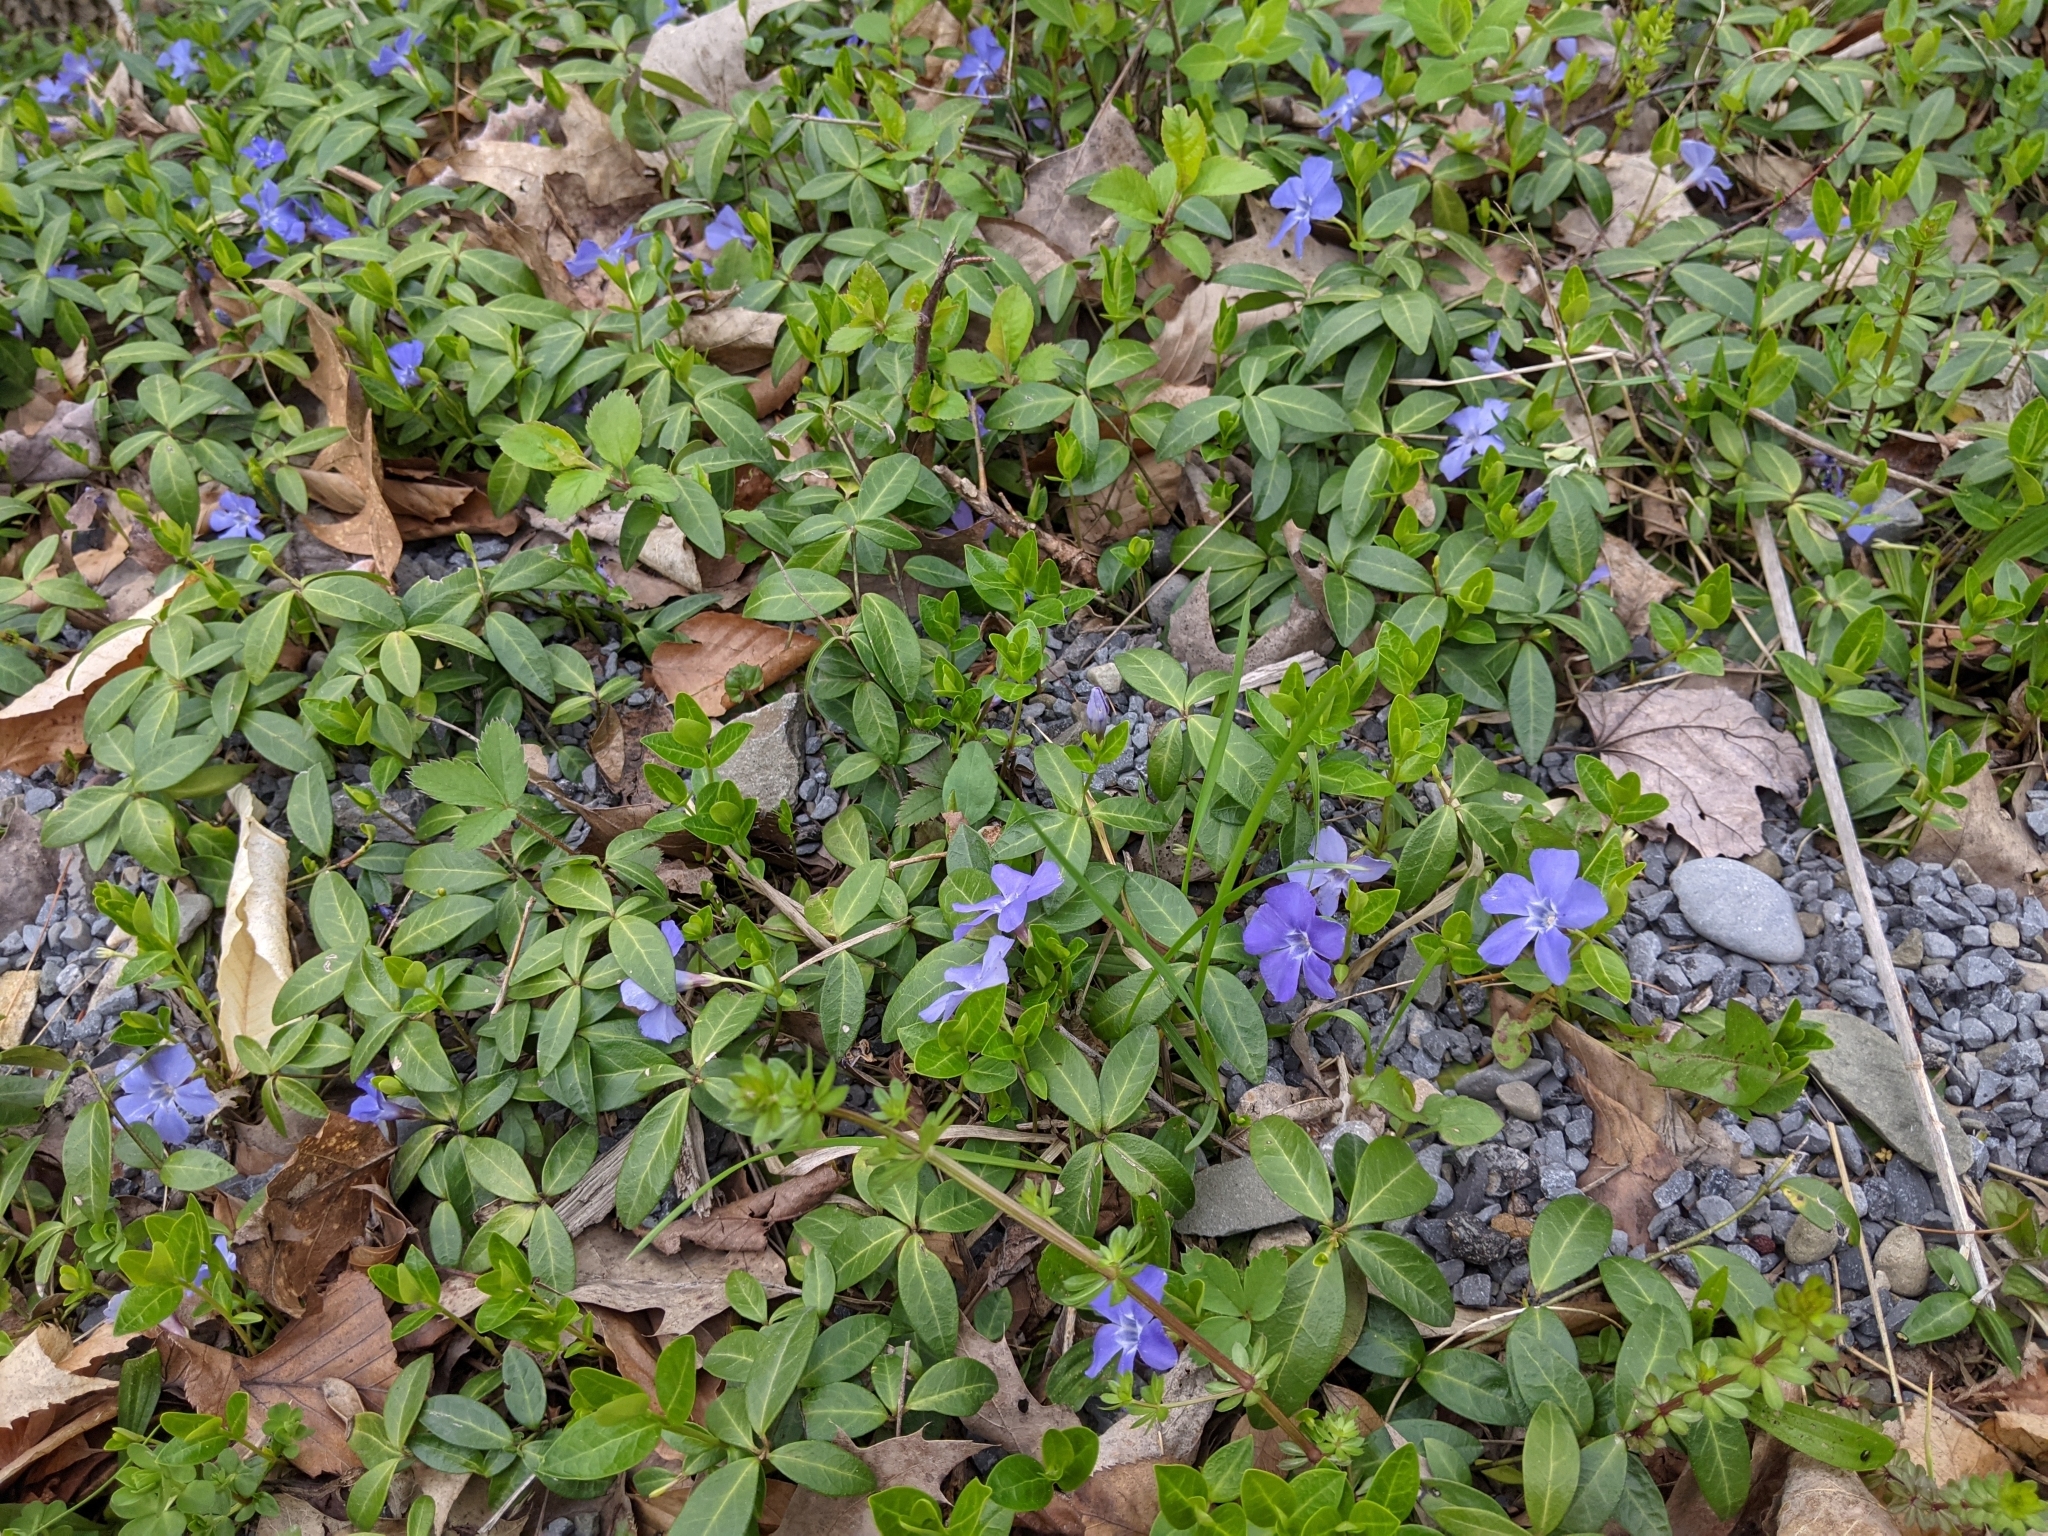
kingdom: Plantae
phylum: Tracheophyta
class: Magnoliopsida
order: Gentianales
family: Apocynaceae
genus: Vinca
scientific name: Vinca minor
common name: Lesser periwinkle
